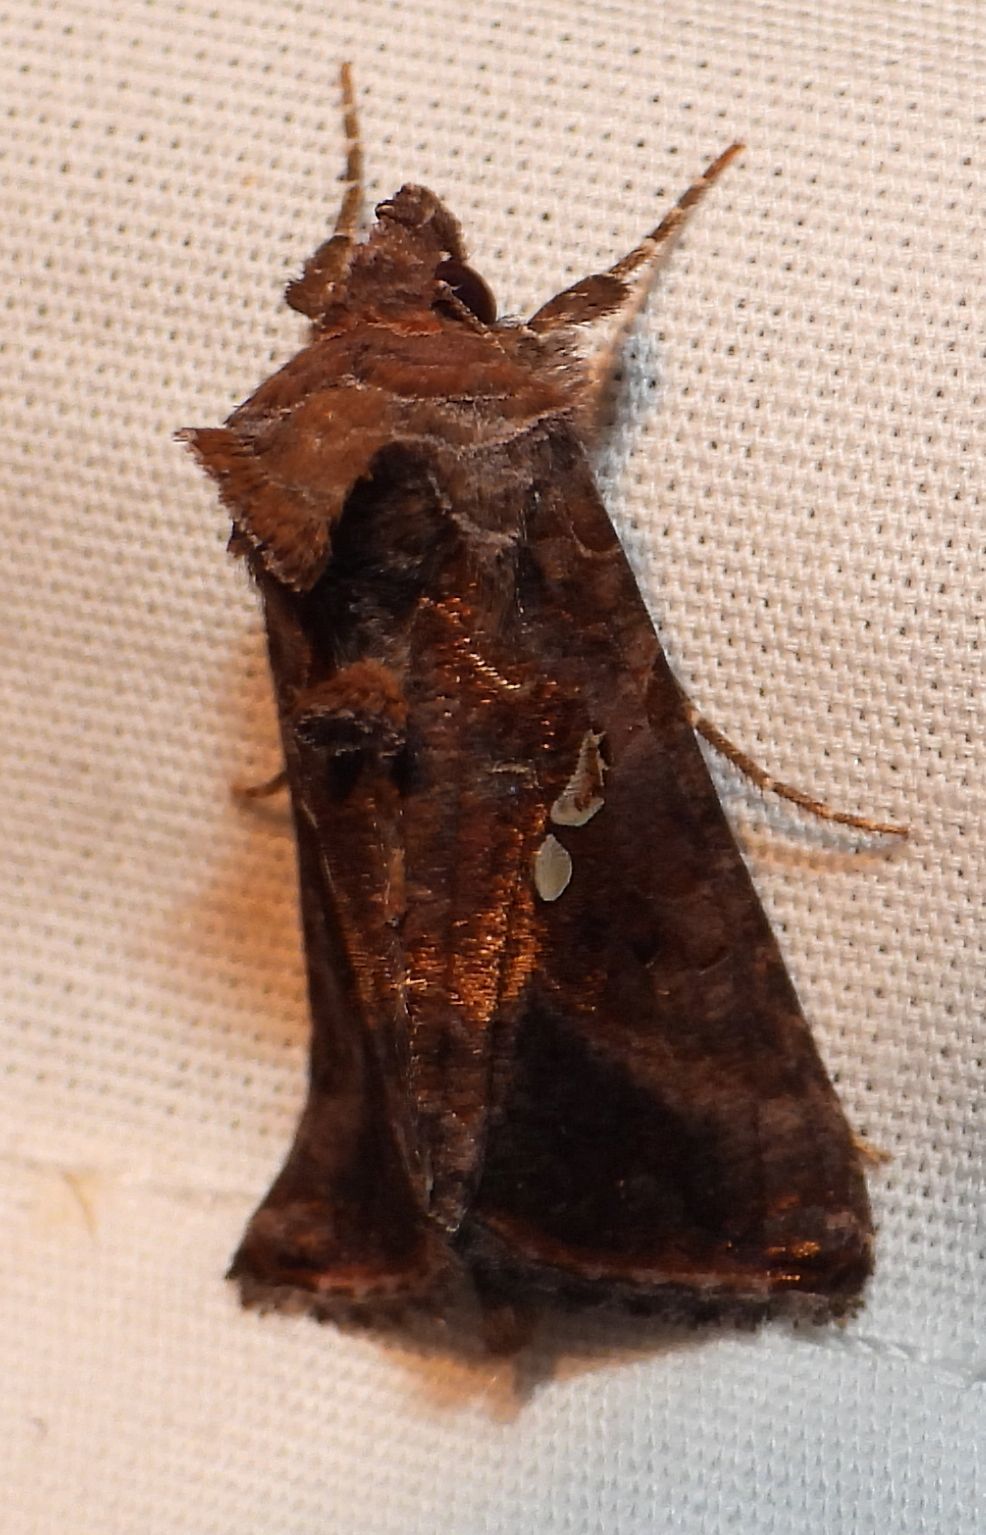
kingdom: Animalia
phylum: Arthropoda
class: Insecta
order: Lepidoptera
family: Noctuidae
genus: Autographa
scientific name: Autographa precationis
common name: Common looper moth
